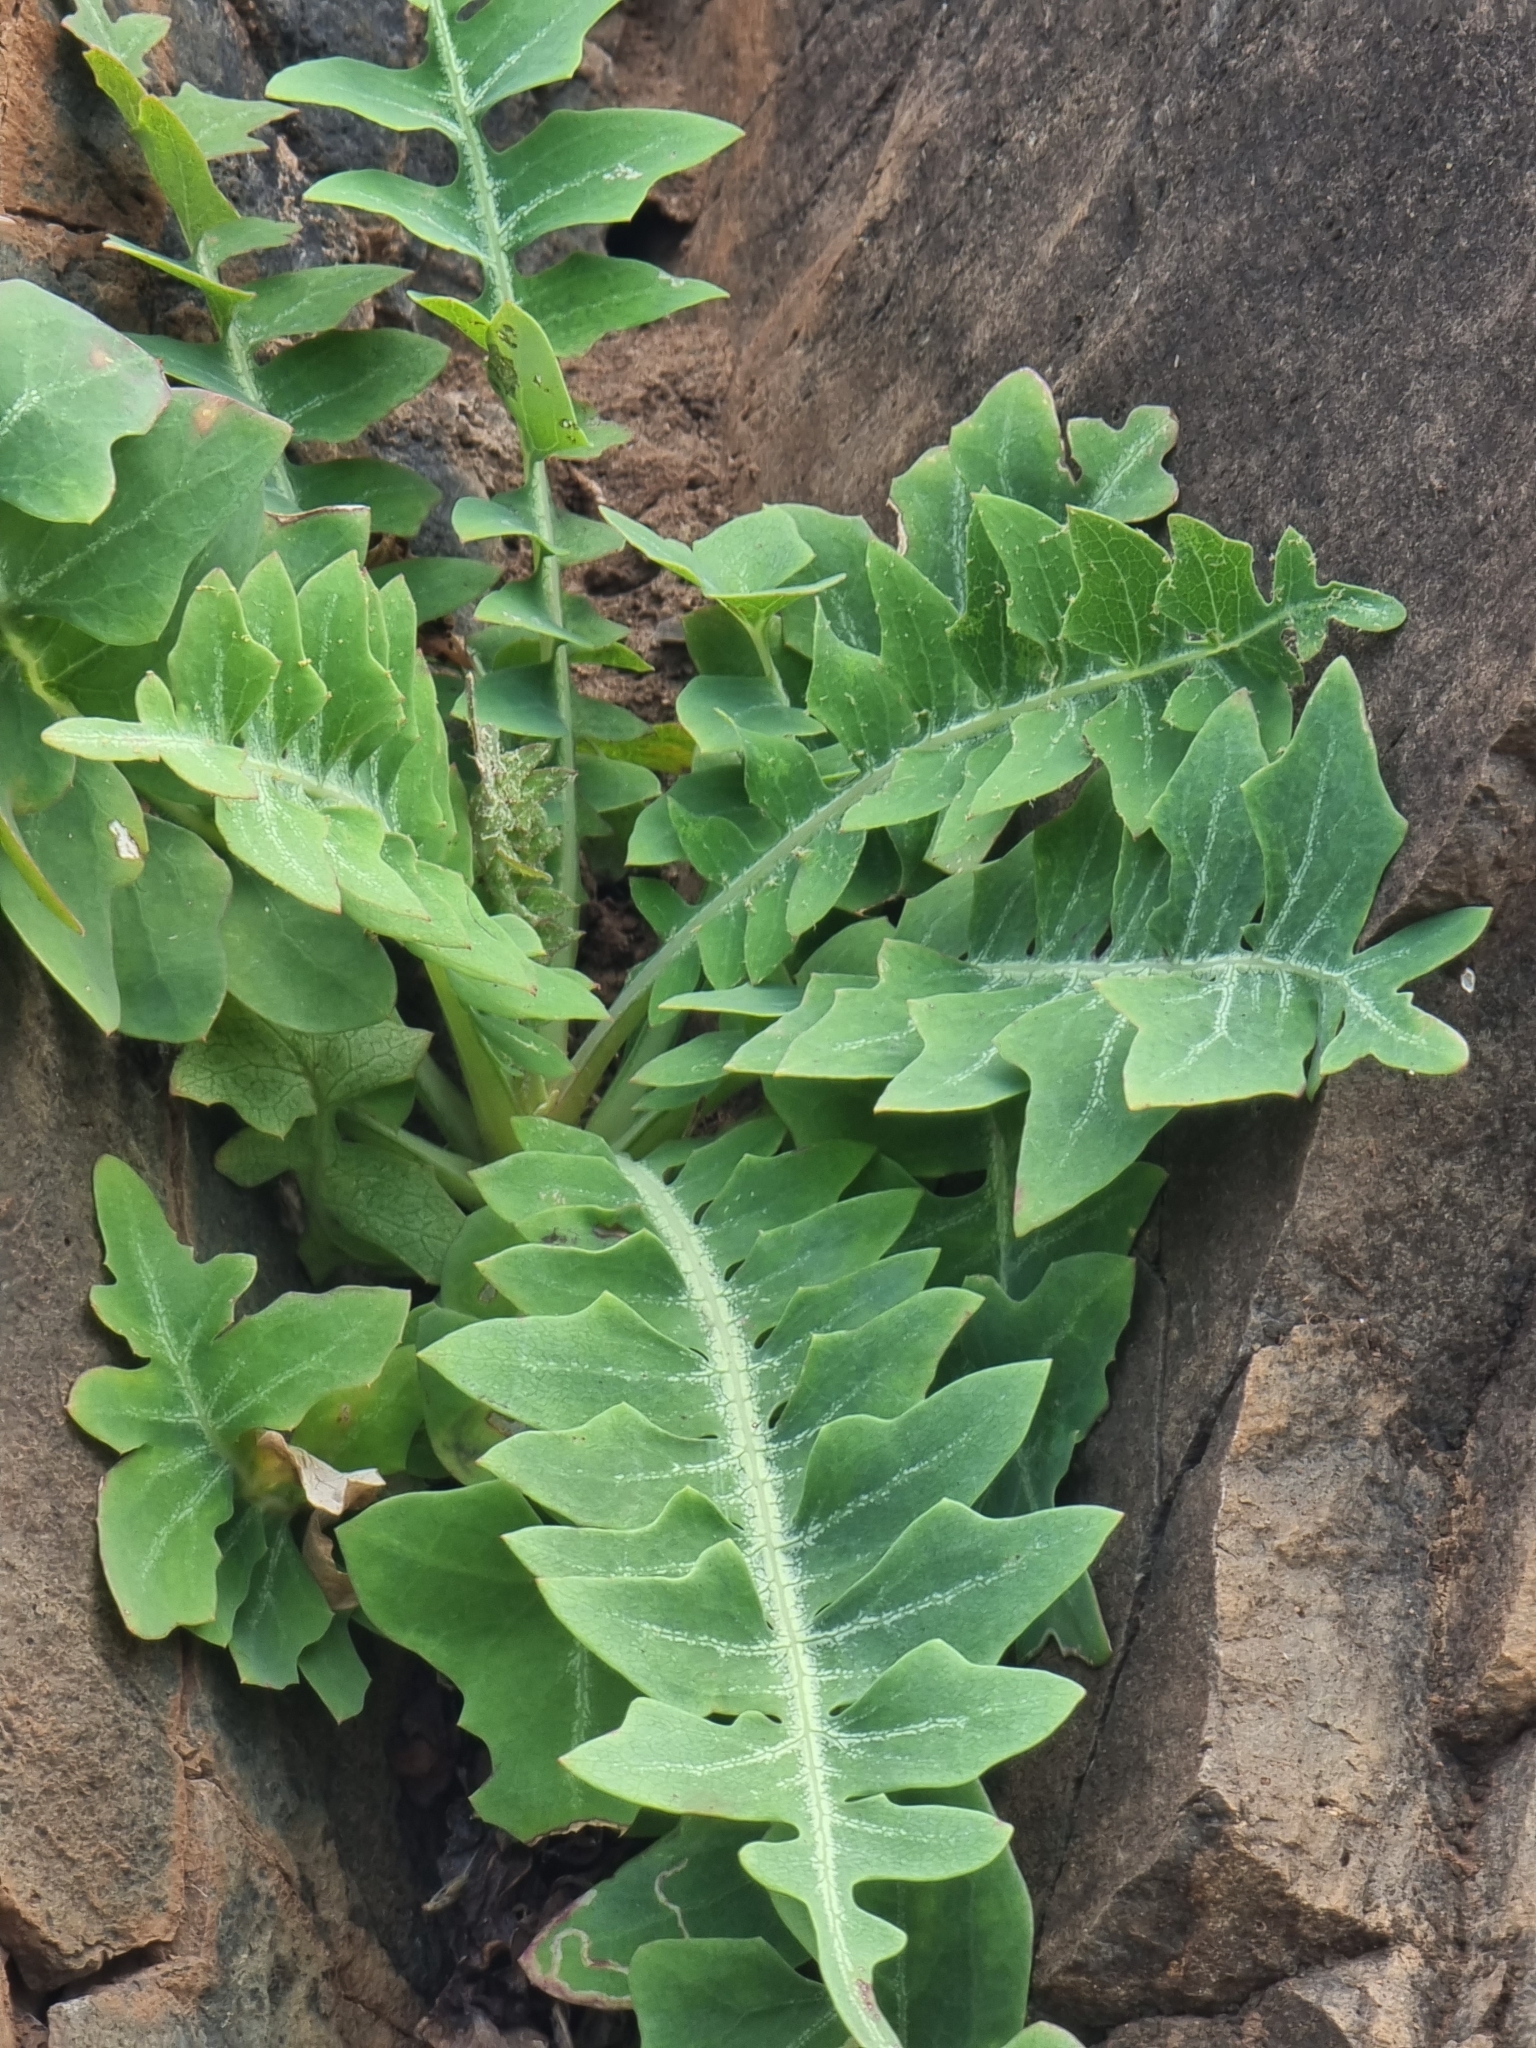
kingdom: Plantae
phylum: Tracheophyta
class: Magnoliopsida
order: Asterales
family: Asteraceae
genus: Sonchus
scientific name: Sonchus latifolius
